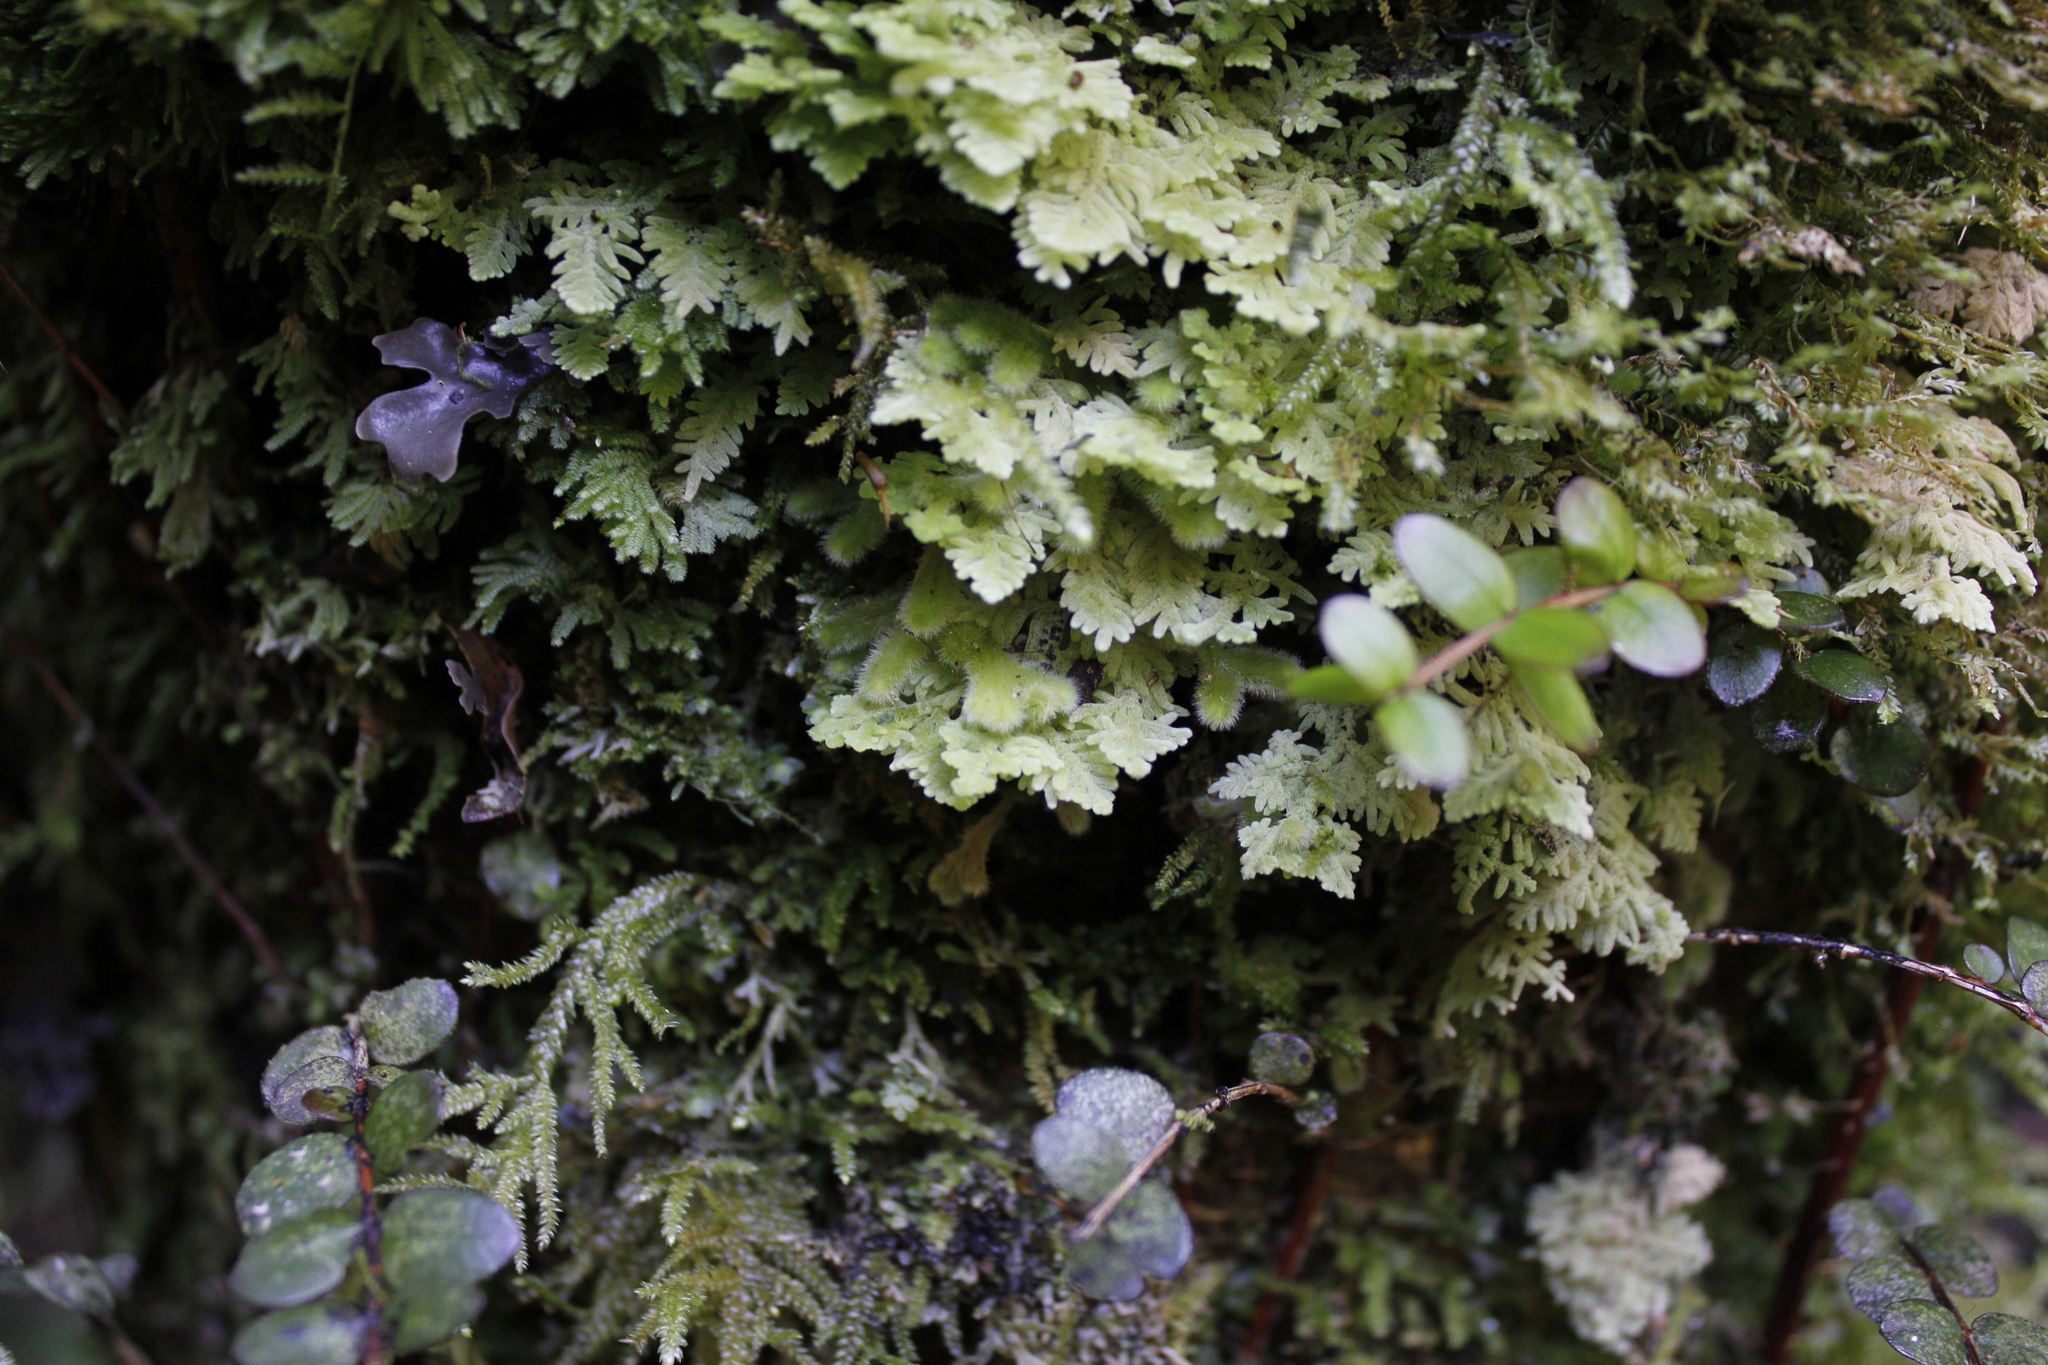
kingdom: Plantae
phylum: Marchantiophyta
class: Jungermanniopsida
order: Jungermanniales
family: Trichocoleaceae
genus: Leiomitra
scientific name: Leiomitra lanata
